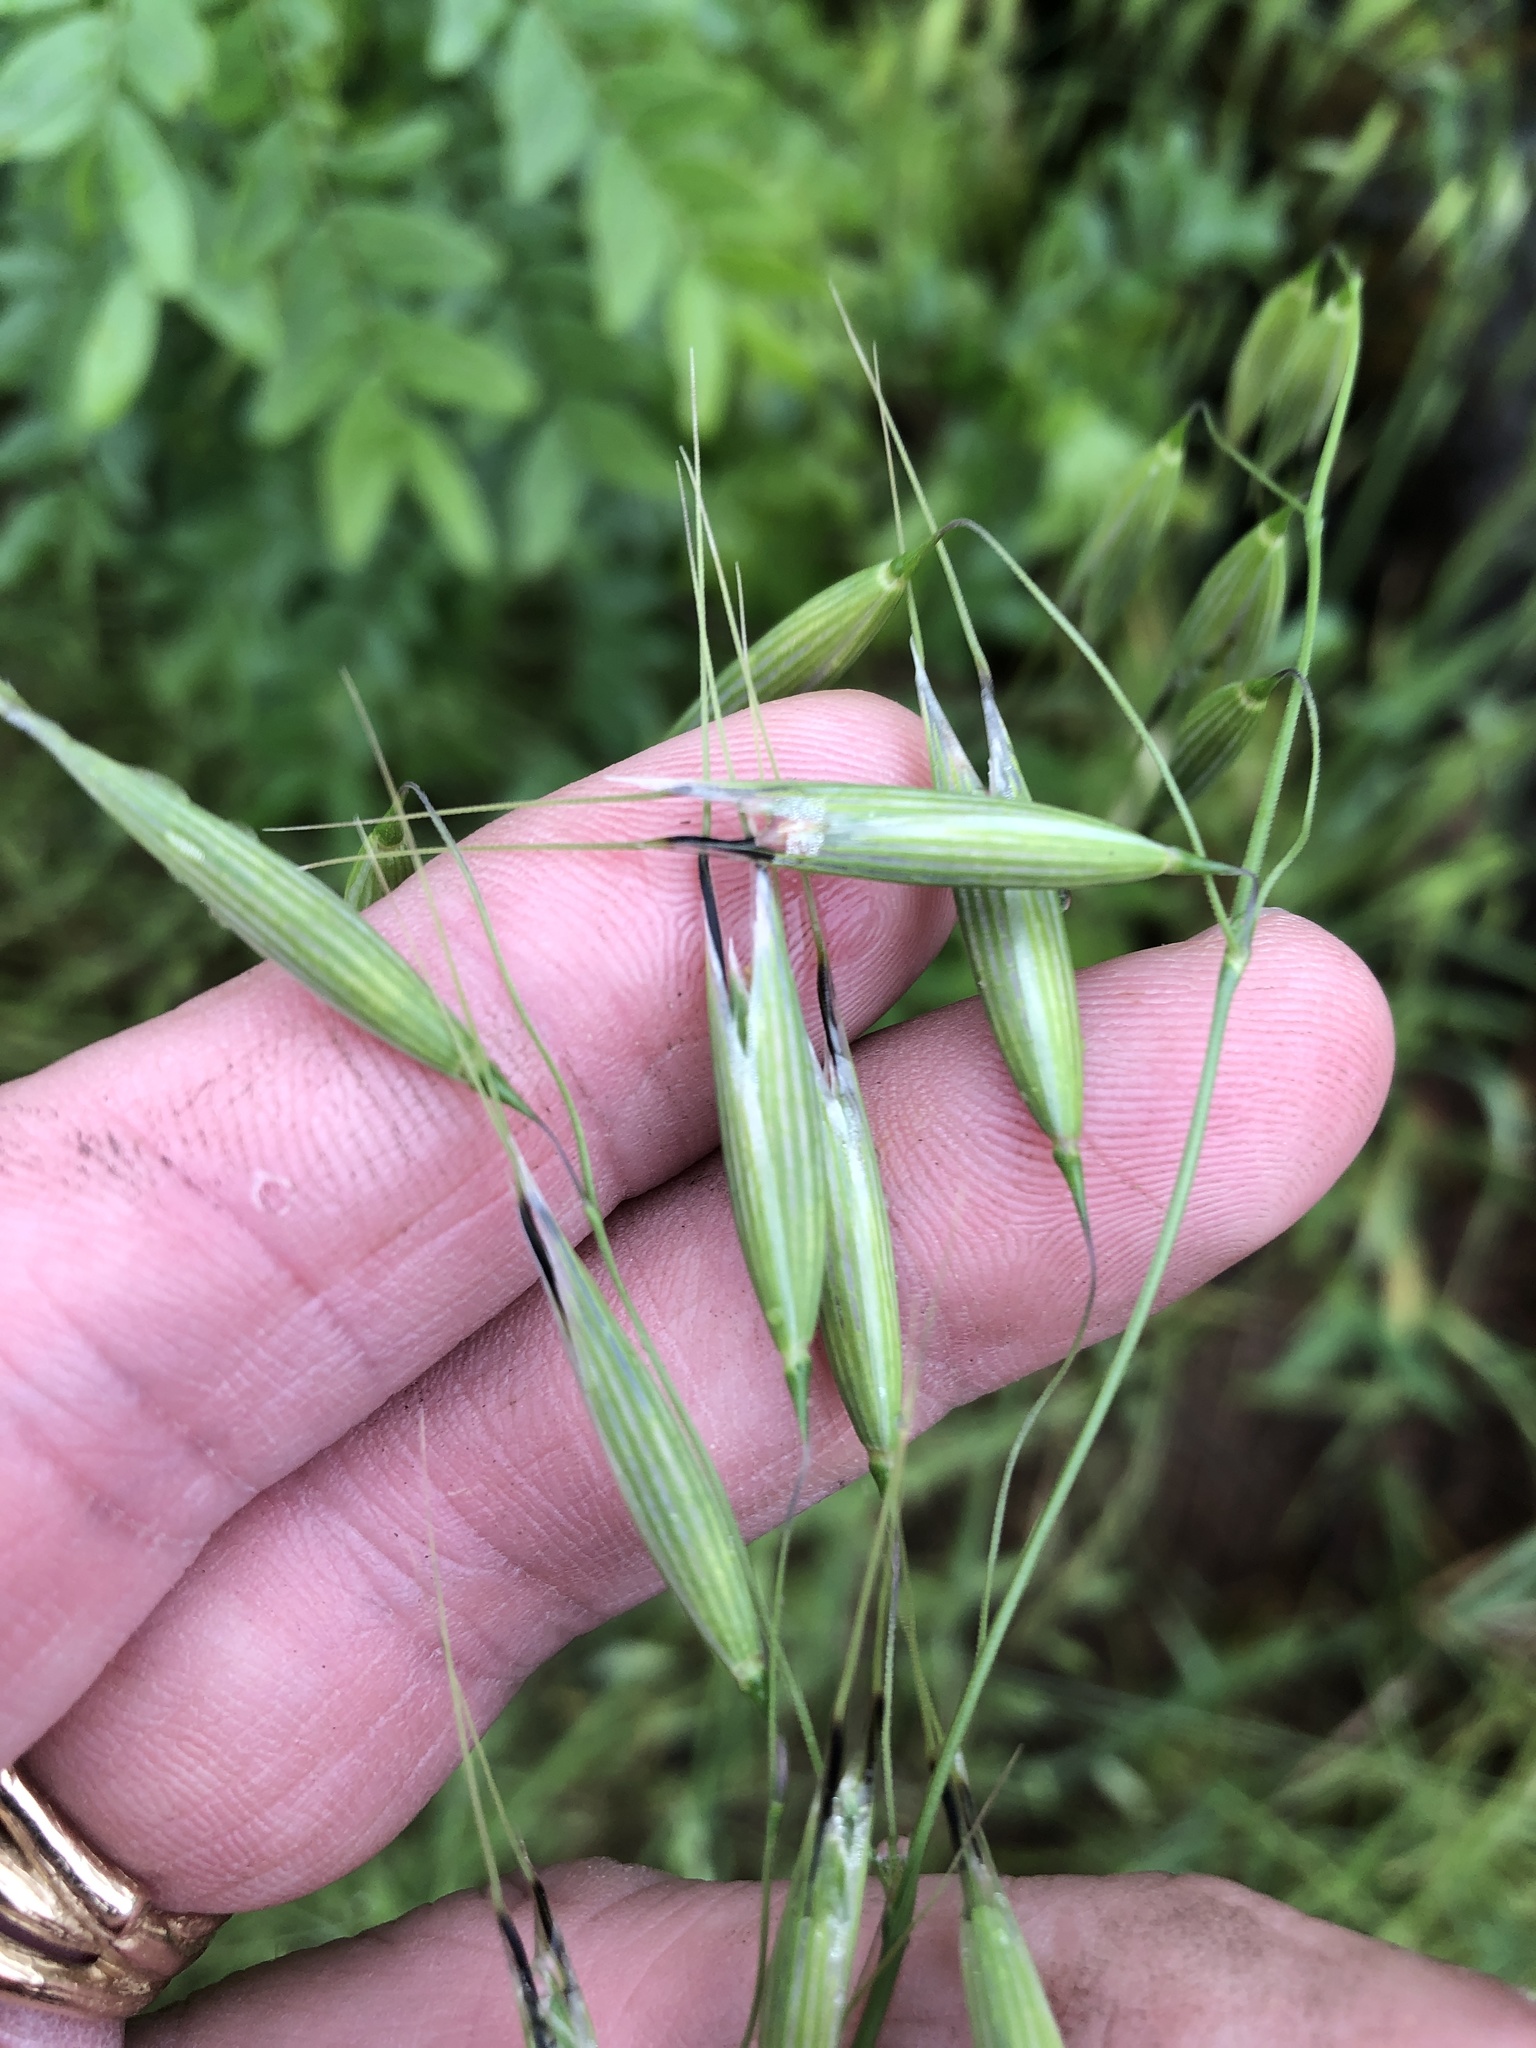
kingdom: Plantae
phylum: Tracheophyta
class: Liliopsida
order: Poales
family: Poaceae
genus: Avena
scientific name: Avena sativa
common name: Oat
